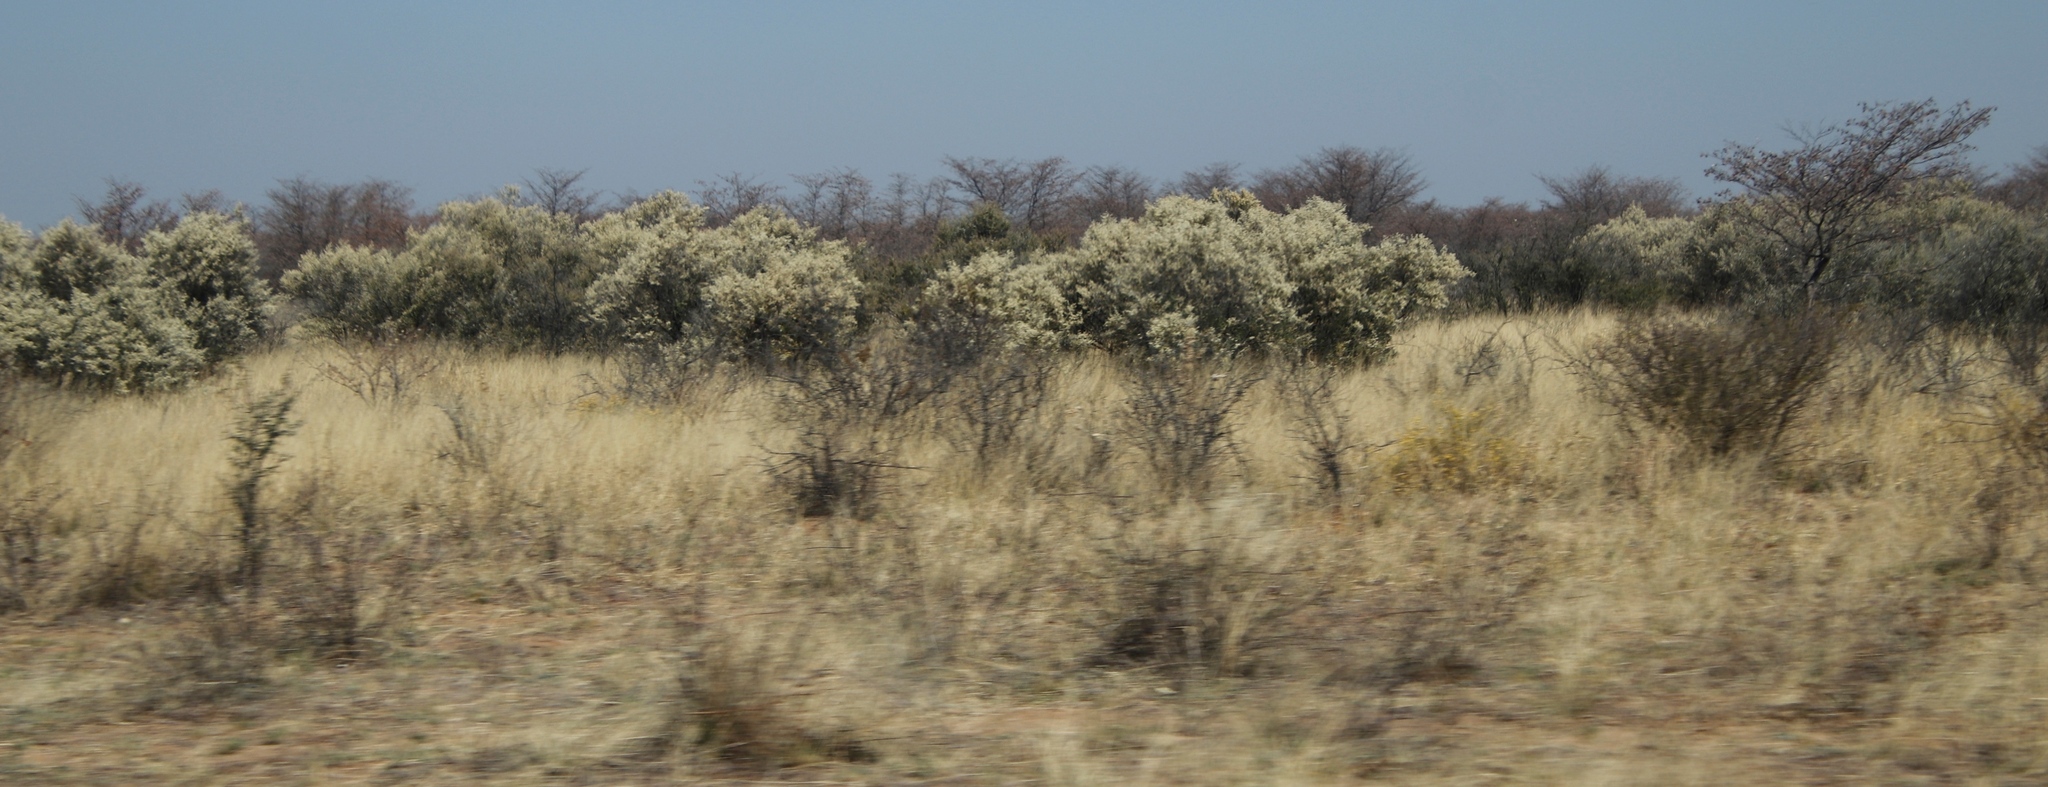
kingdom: Plantae
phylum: Tracheophyta
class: Magnoliopsida
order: Fabales
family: Fabaceae
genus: Senegalia
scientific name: Senegalia mellifera
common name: Hookthorn
